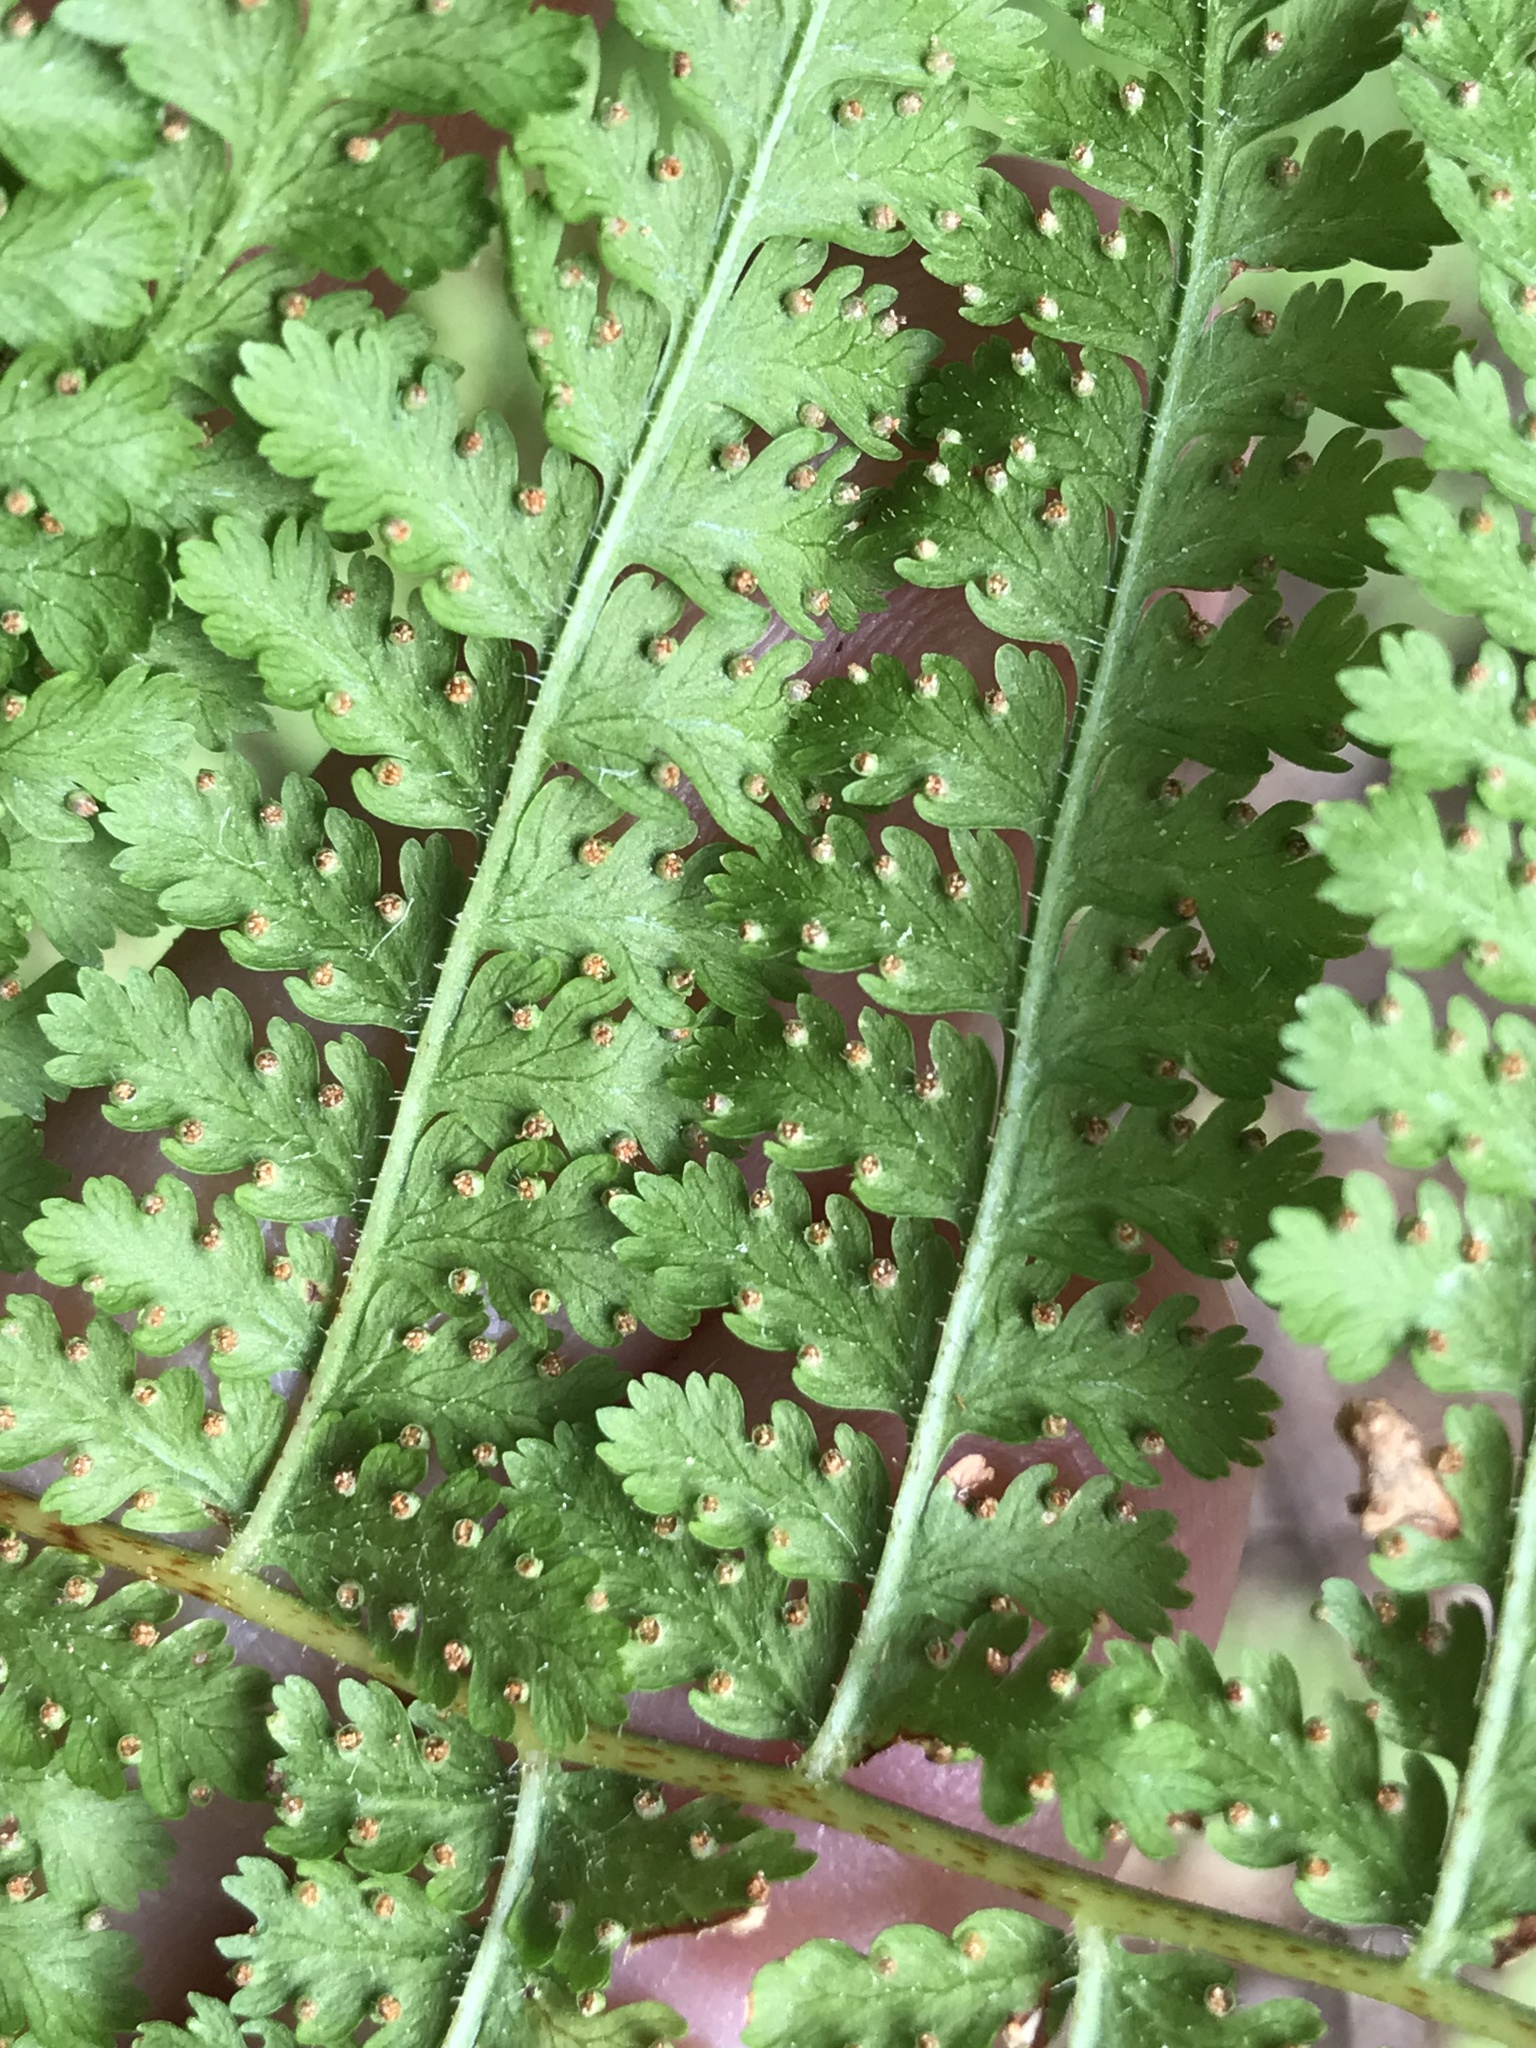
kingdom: Plantae
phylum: Tracheophyta
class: Polypodiopsida
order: Polypodiales
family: Dennstaedtiaceae
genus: Sitobolium
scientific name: Sitobolium punctilobum
